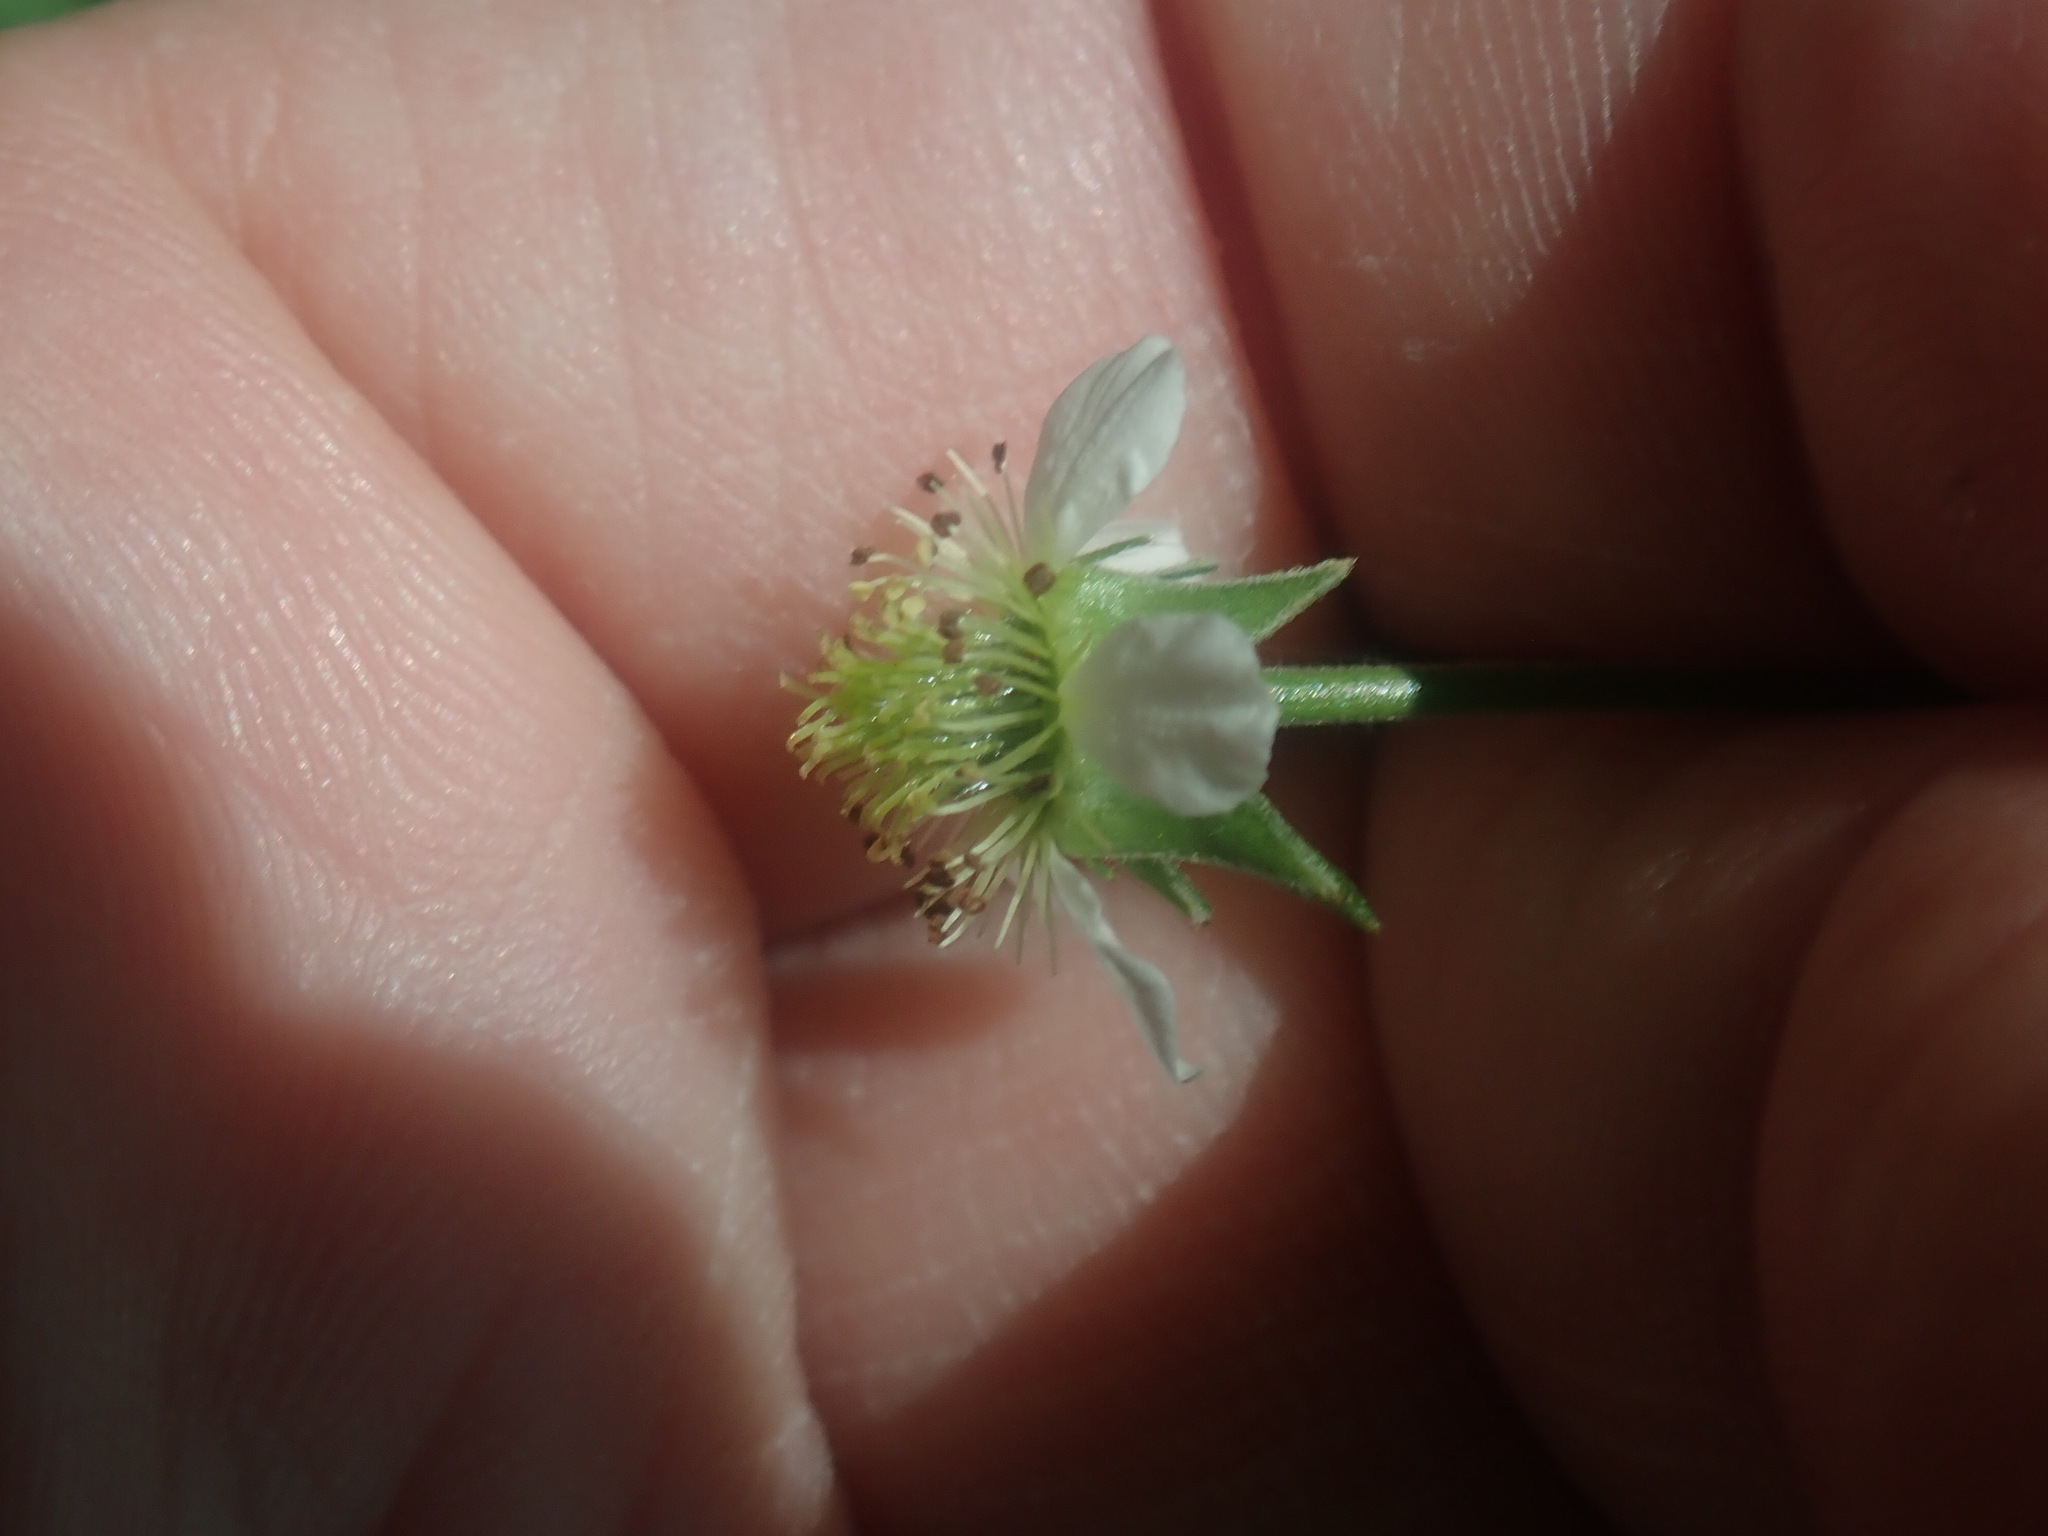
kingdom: Plantae
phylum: Tracheophyta
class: Magnoliopsida
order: Rosales
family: Rosaceae
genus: Geum
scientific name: Geum canadense
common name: White avens
